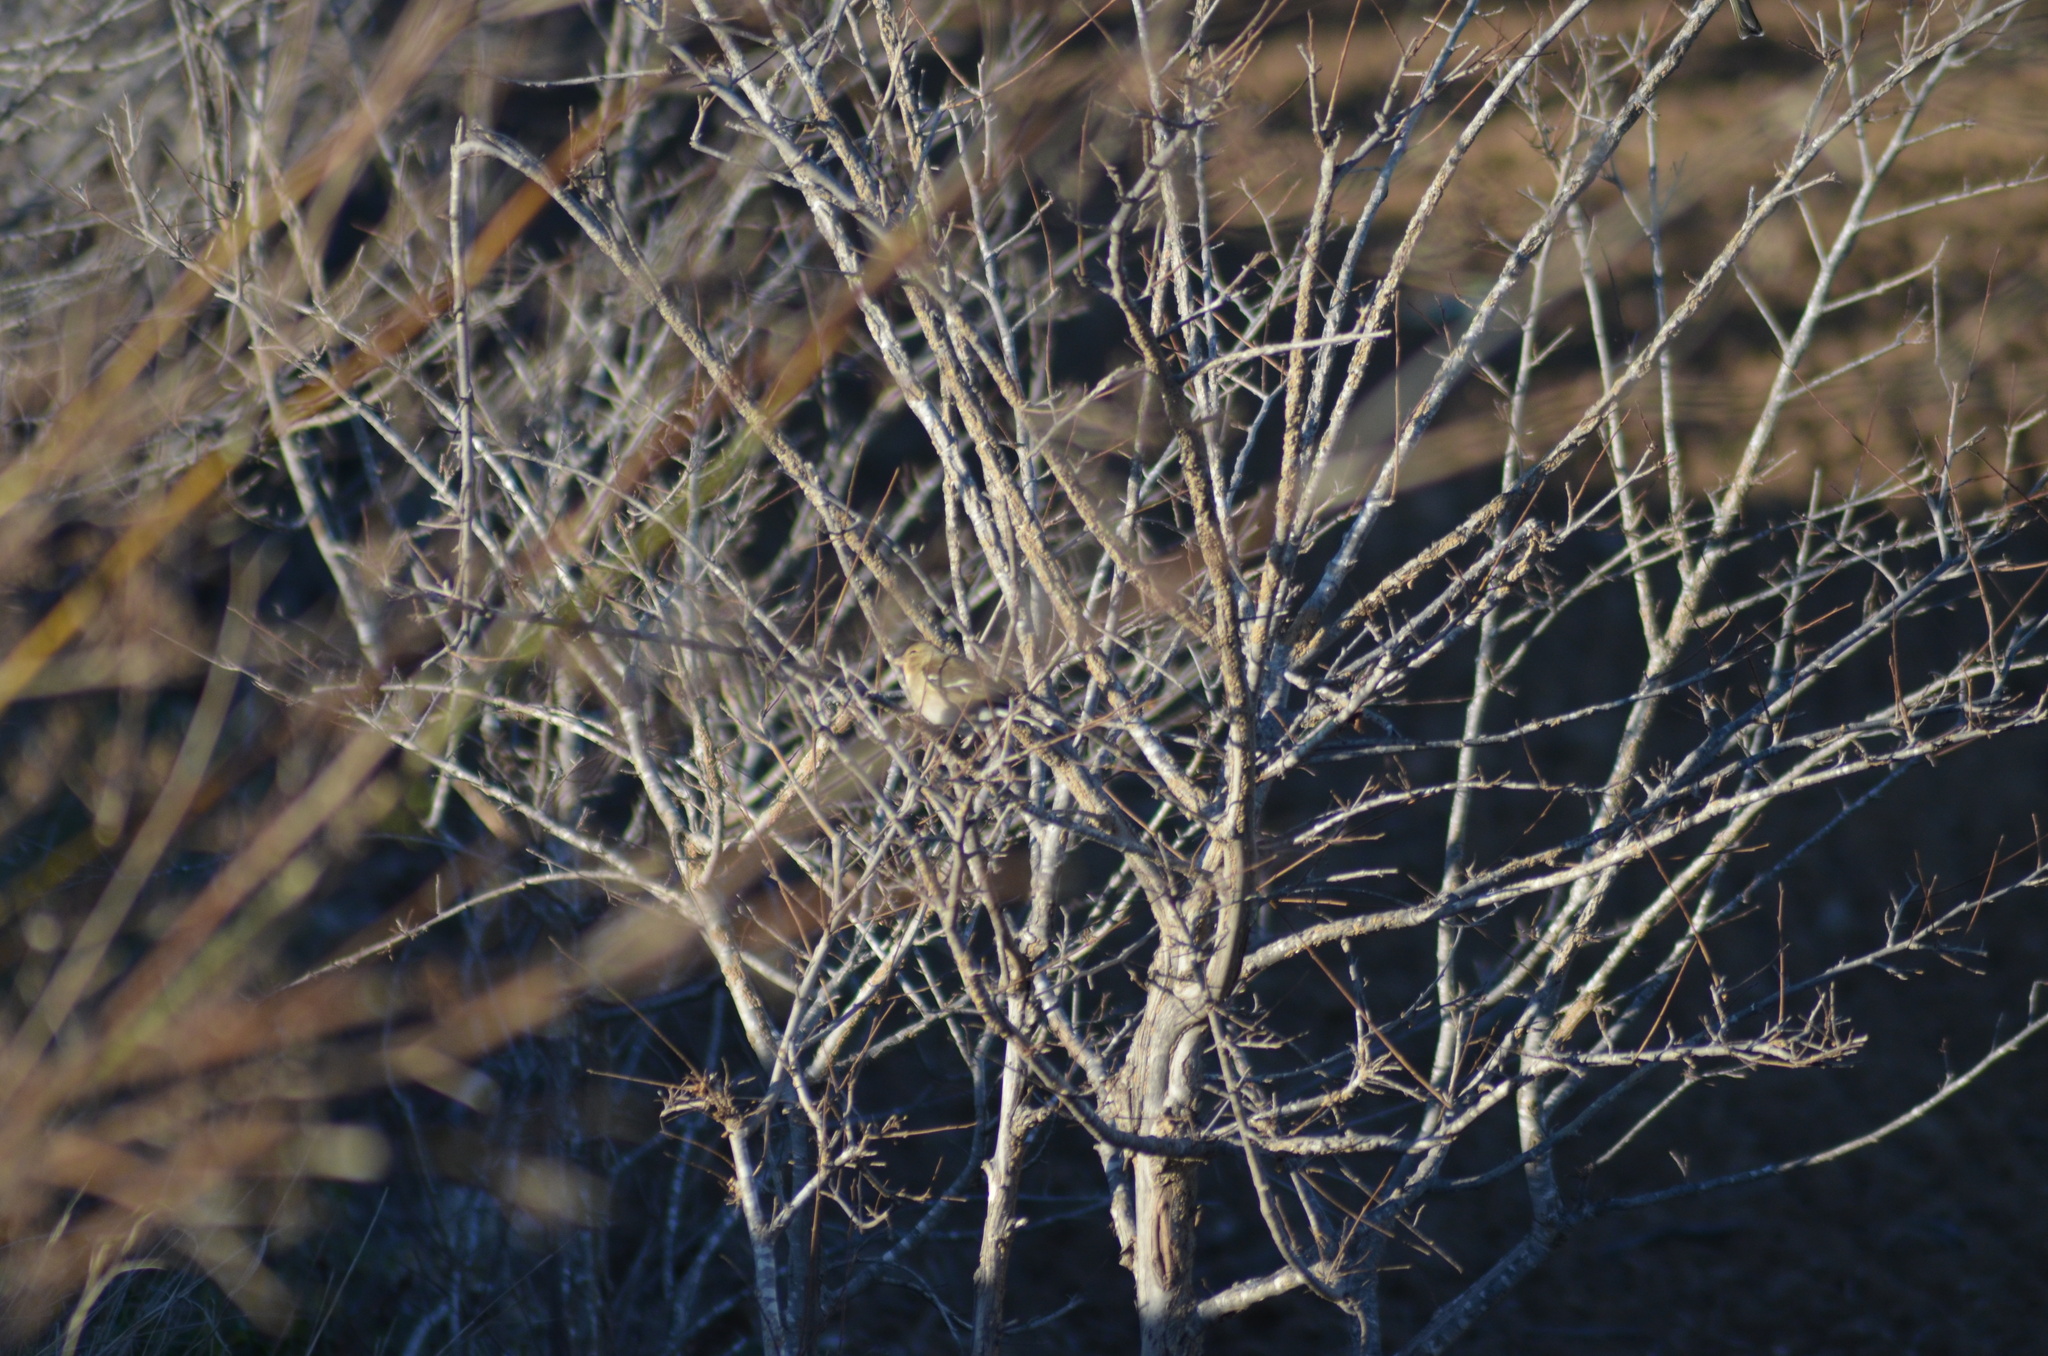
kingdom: Animalia
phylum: Chordata
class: Aves
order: Passeriformes
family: Fringillidae
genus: Fringilla
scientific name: Fringilla coelebs
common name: Common chaffinch
